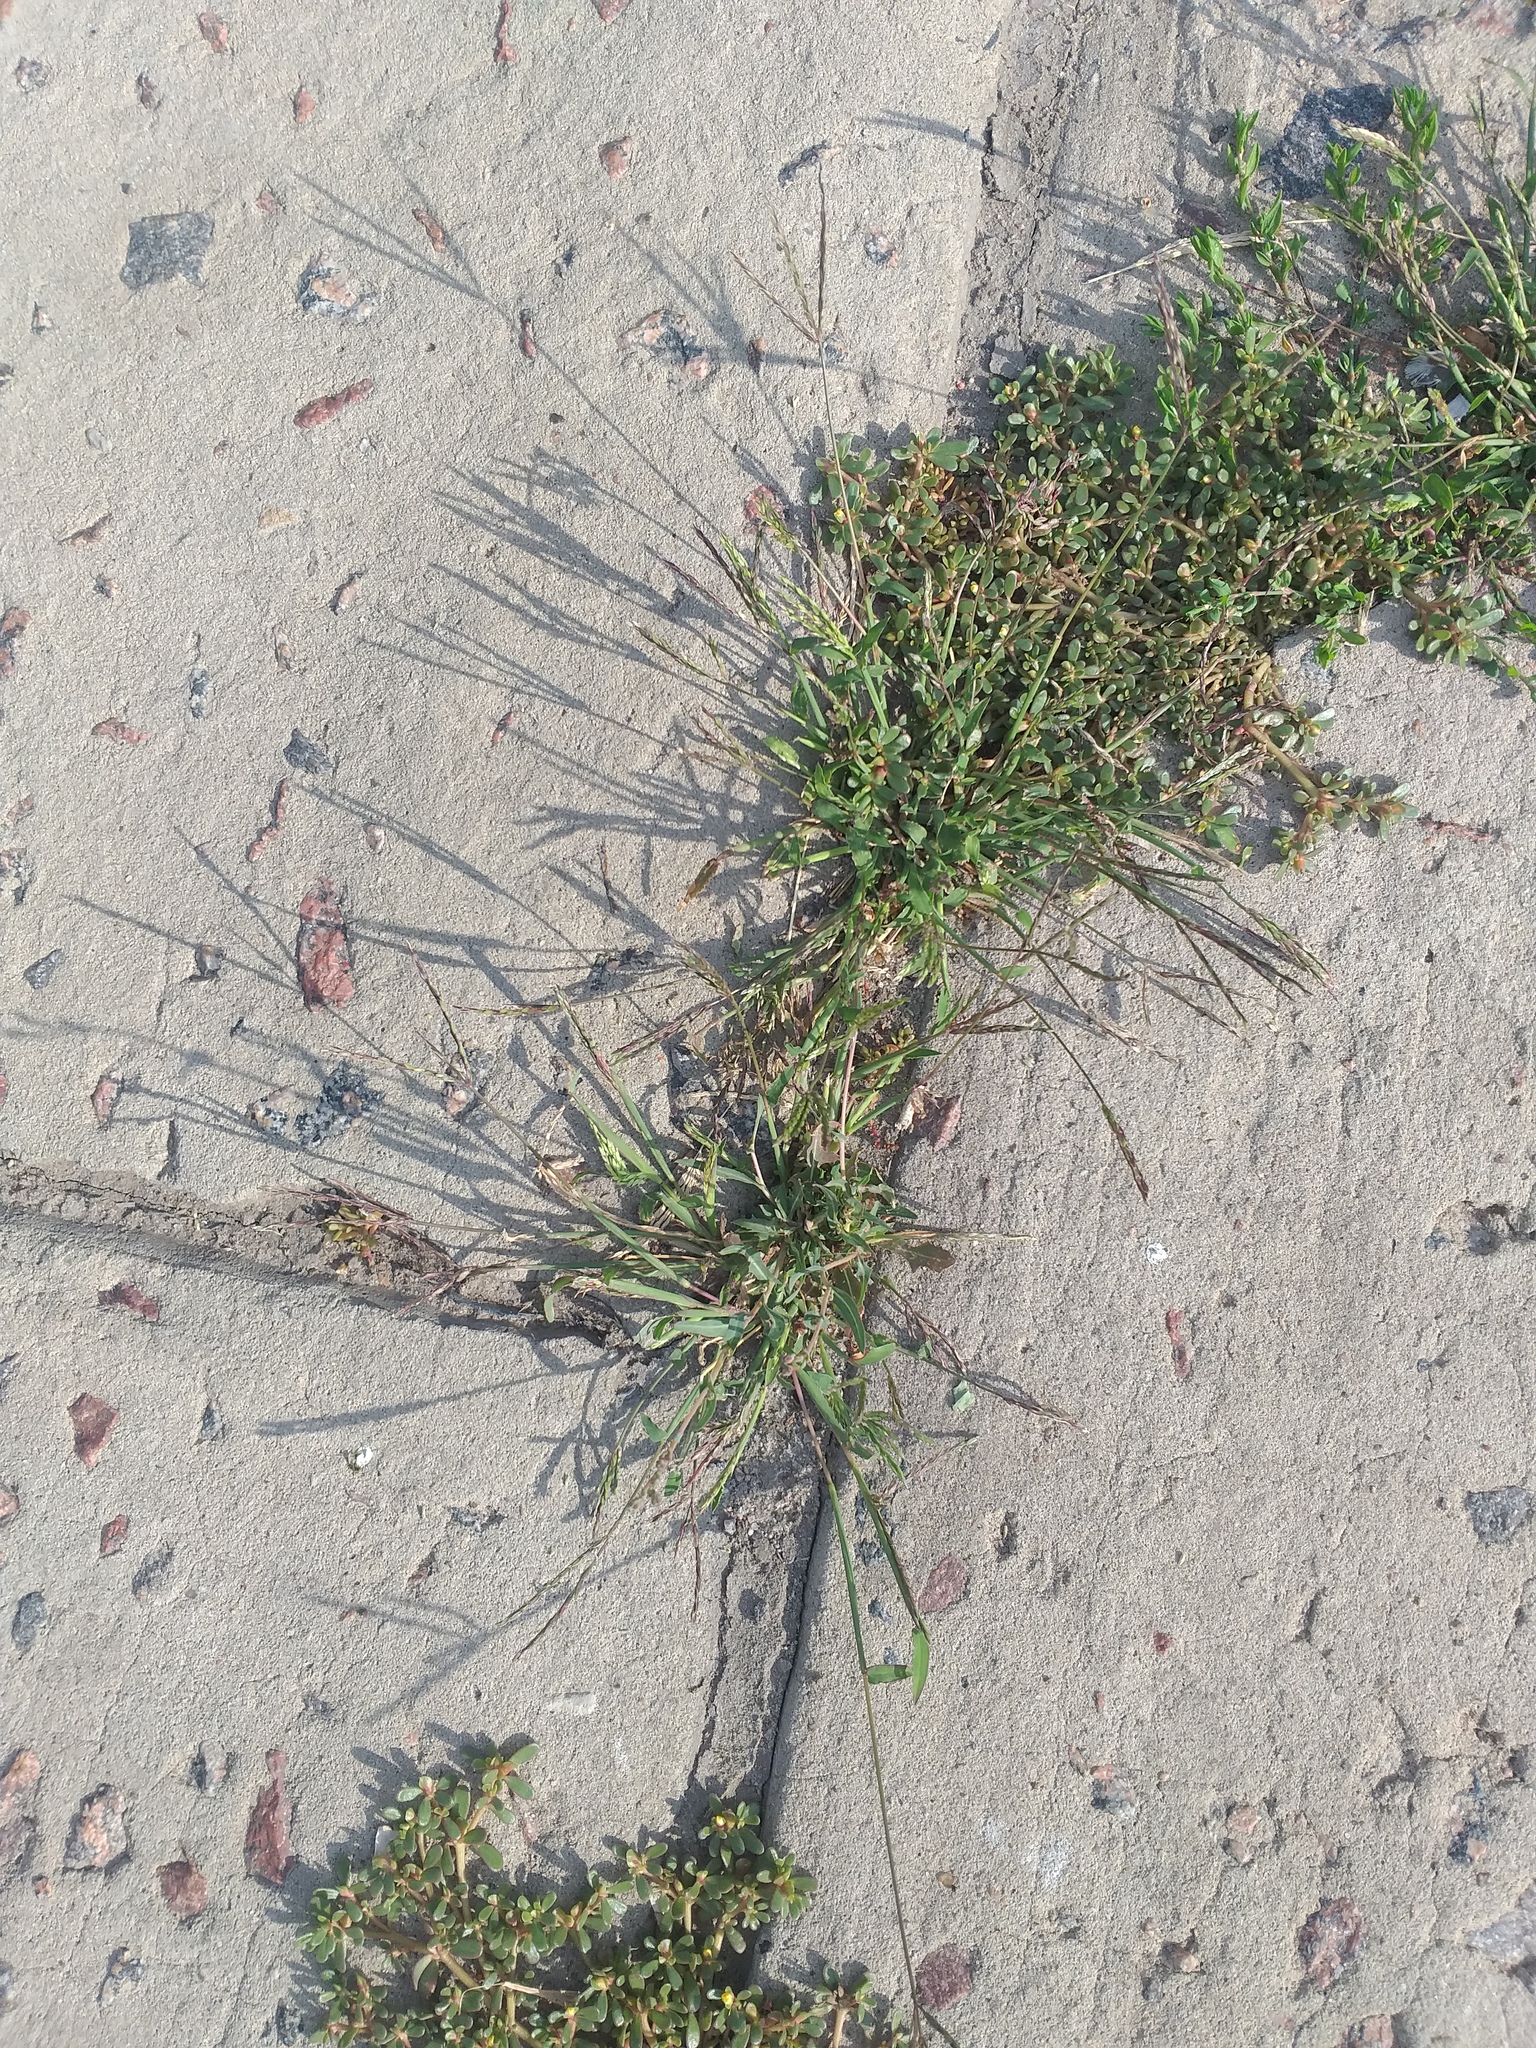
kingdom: Plantae
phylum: Tracheophyta
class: Magnoliopsida
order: Caryophyllales
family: Polygonaceae
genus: Polygonum
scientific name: Polygonum
